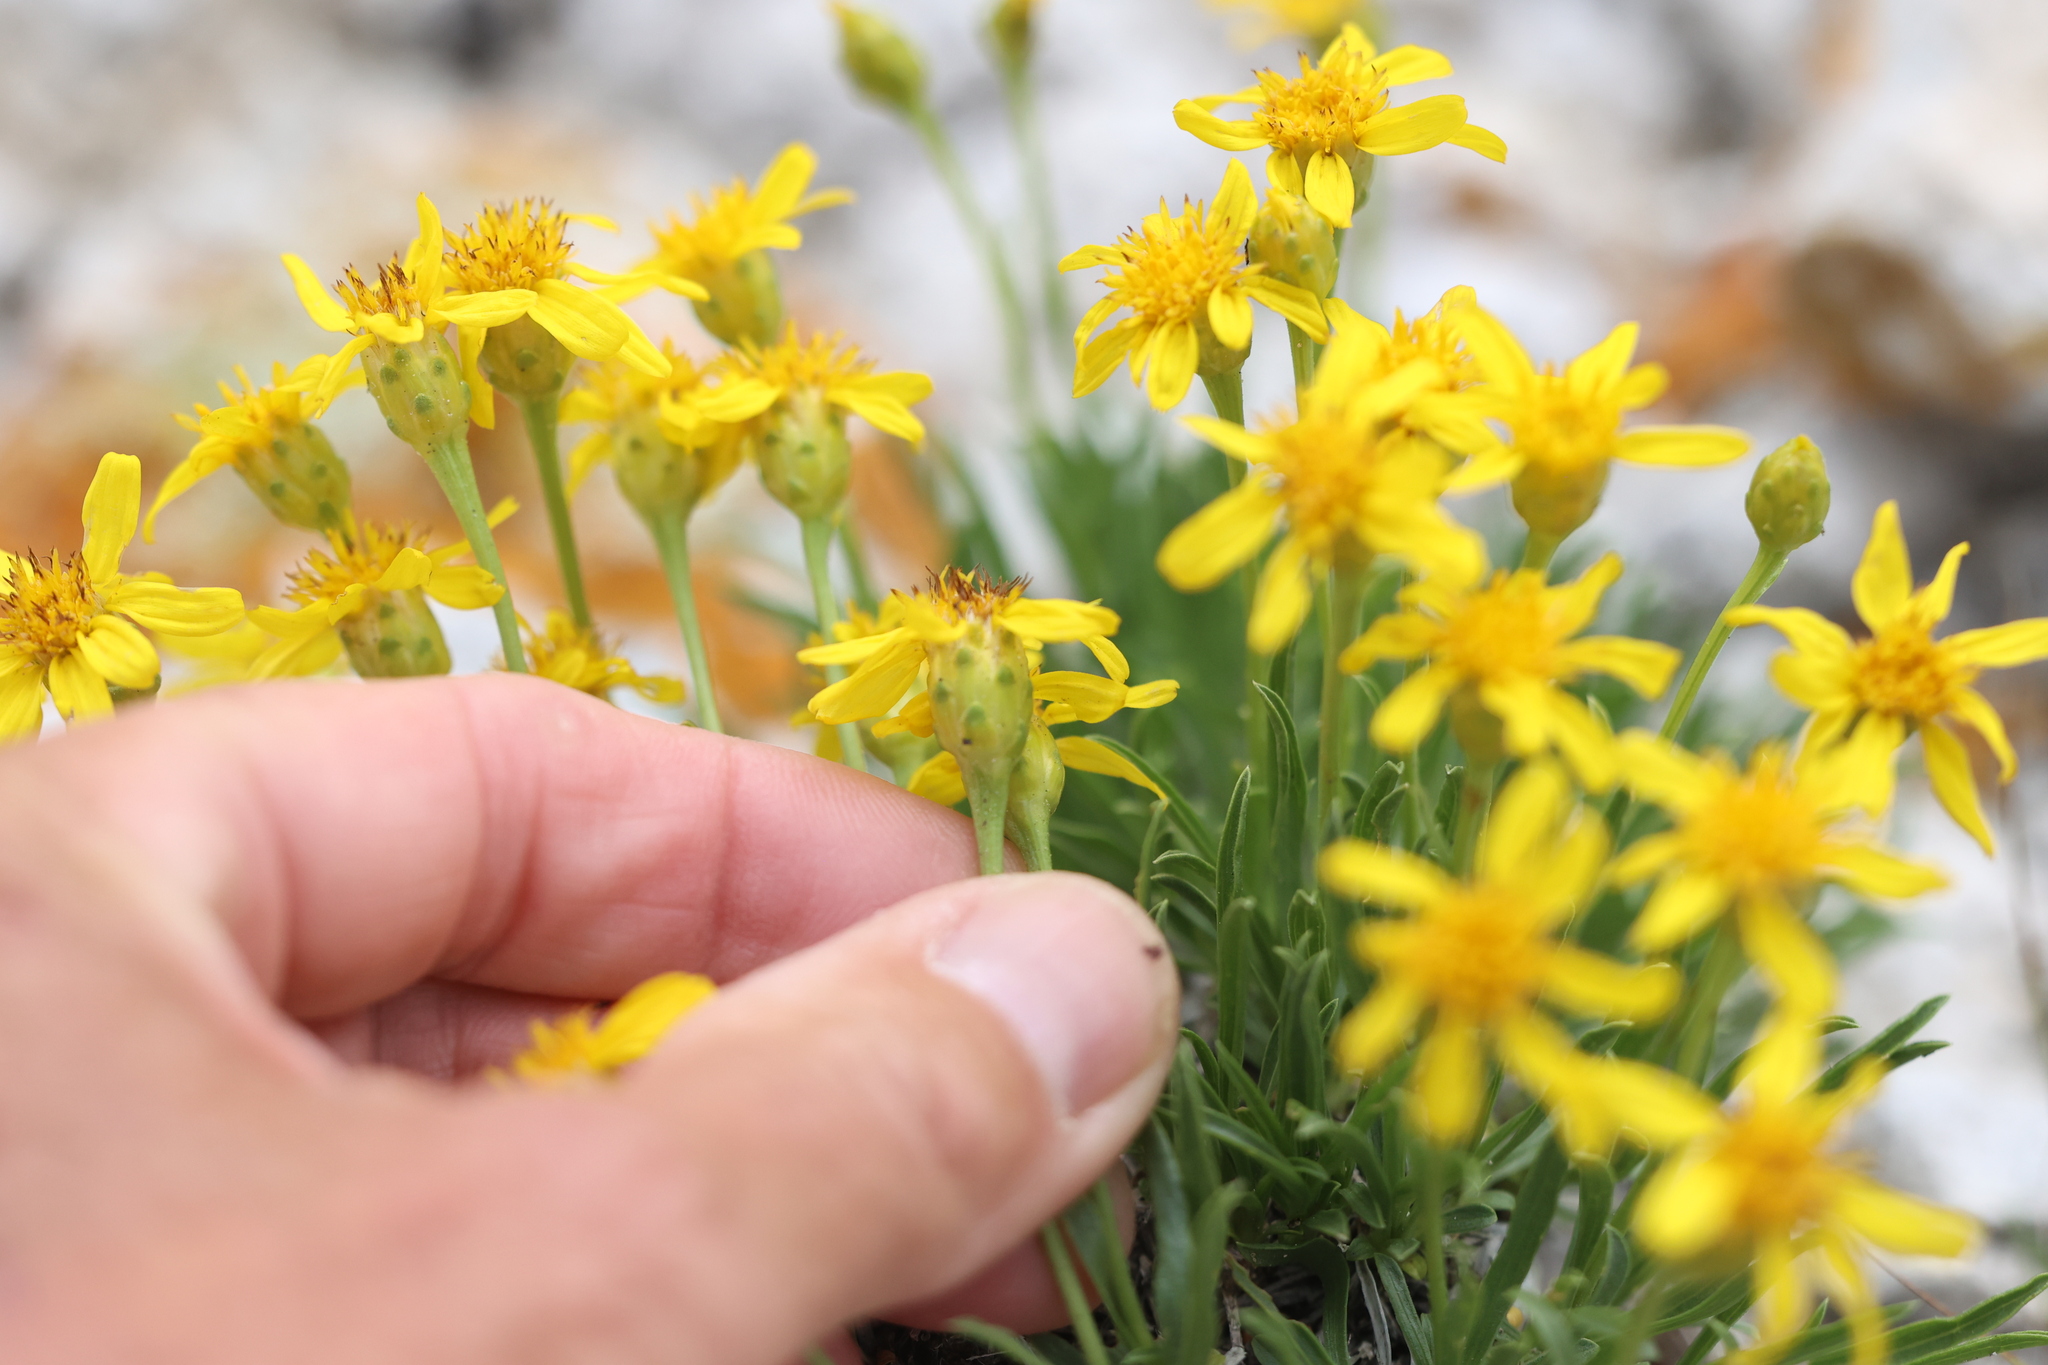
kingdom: Plantae
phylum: Tracheophyta
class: Magnoliopsida
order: Asterales
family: Asteraceae
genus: Stenotus
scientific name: Stenotus armerioides
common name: Thrifty goldenweed
